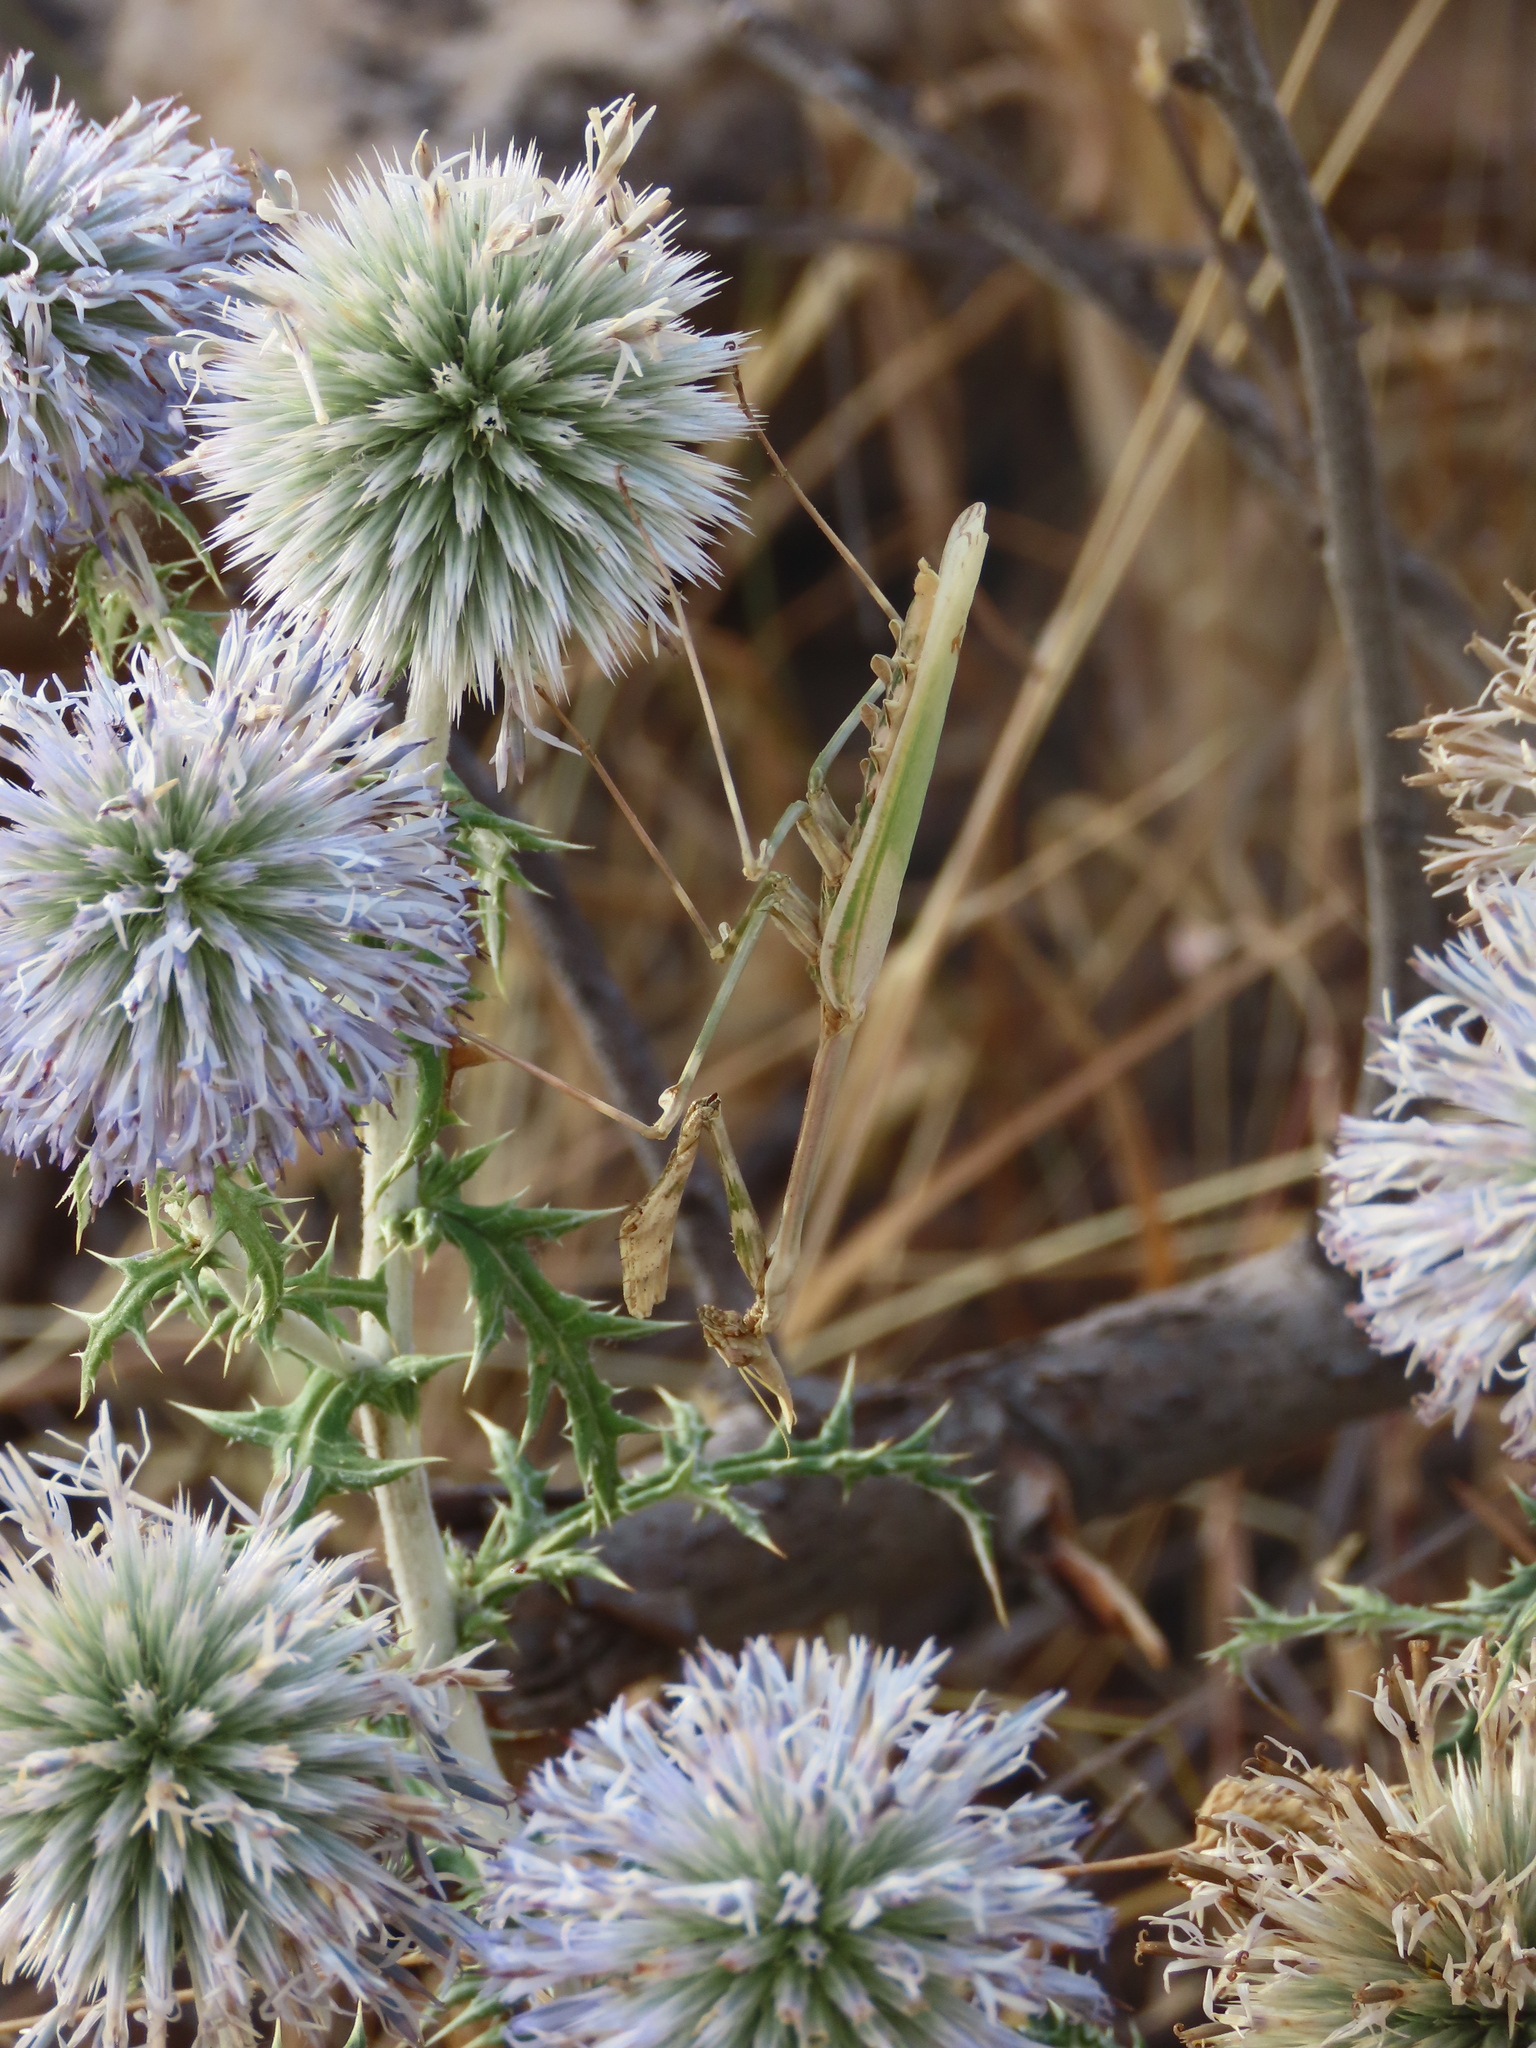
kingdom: Animalia
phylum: Arthropoda
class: Insecta
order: Mantodea
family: Empusidae
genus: Empusa
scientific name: Empusa pennata
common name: Conehead mantis
